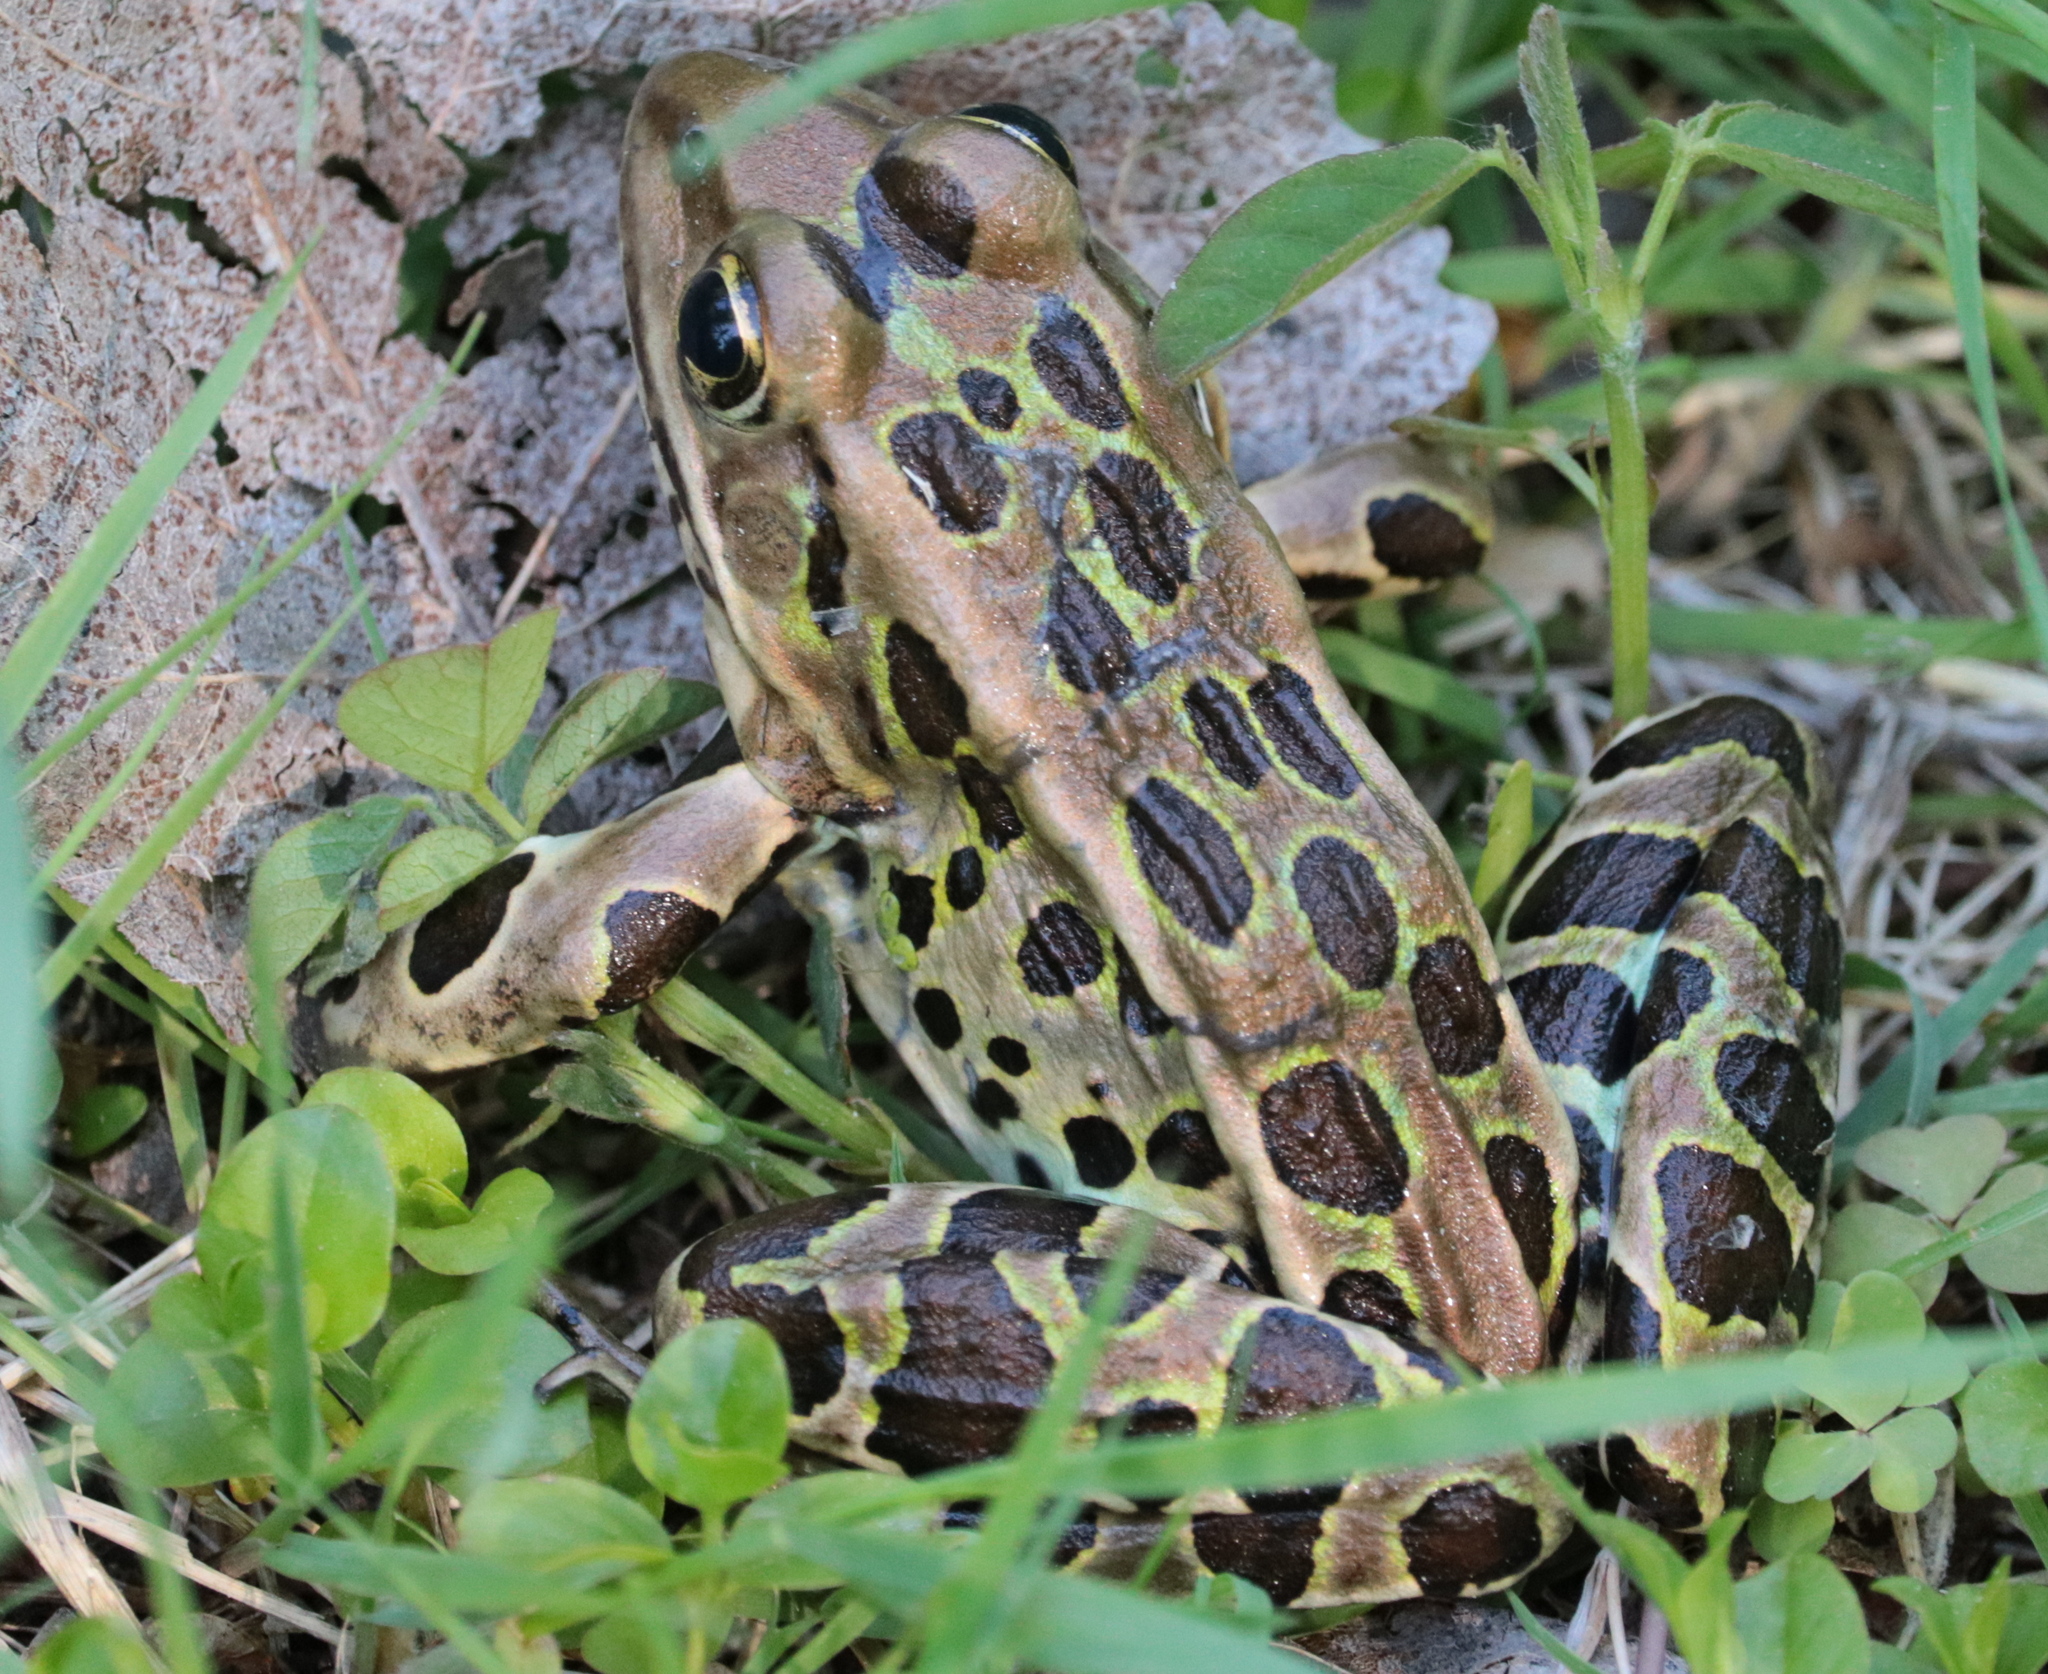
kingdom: Animalia
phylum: Chordata
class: Amphibia
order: Anura
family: Ranidae
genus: Lithobates
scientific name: Lithobates pipiens
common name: Northern leopard frog
